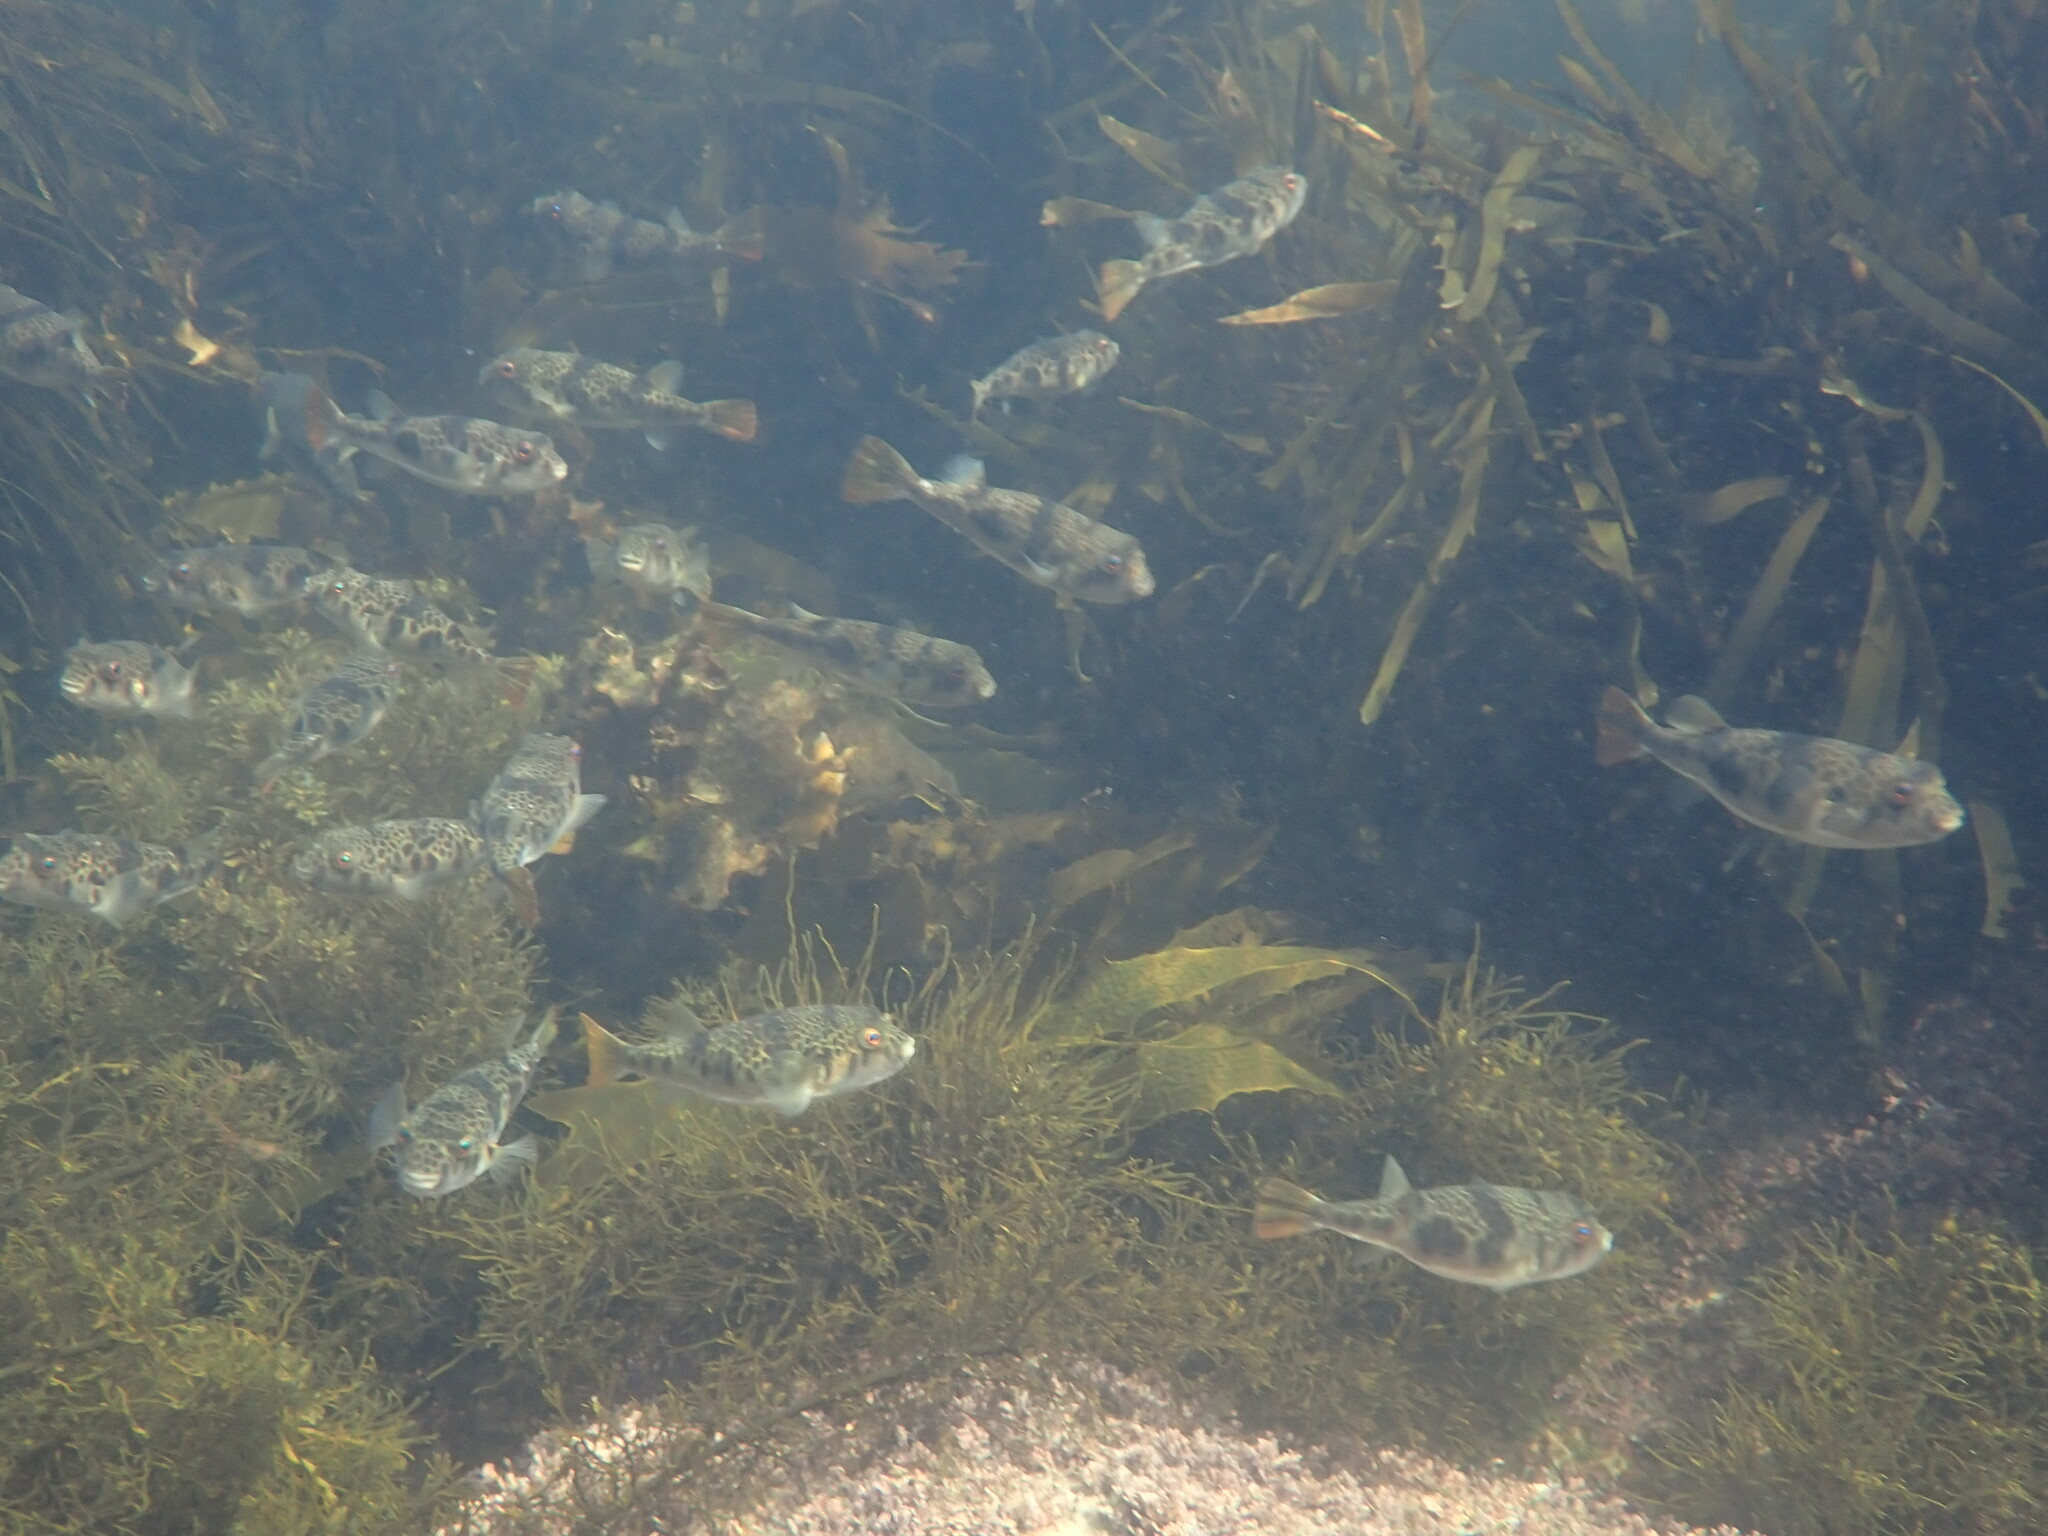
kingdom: Animalia
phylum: Chordata
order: Tetraodontiformes
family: Tetraodontidae
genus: Tetractenos
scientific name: Tetractenos glaber
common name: Smooth toadfish
